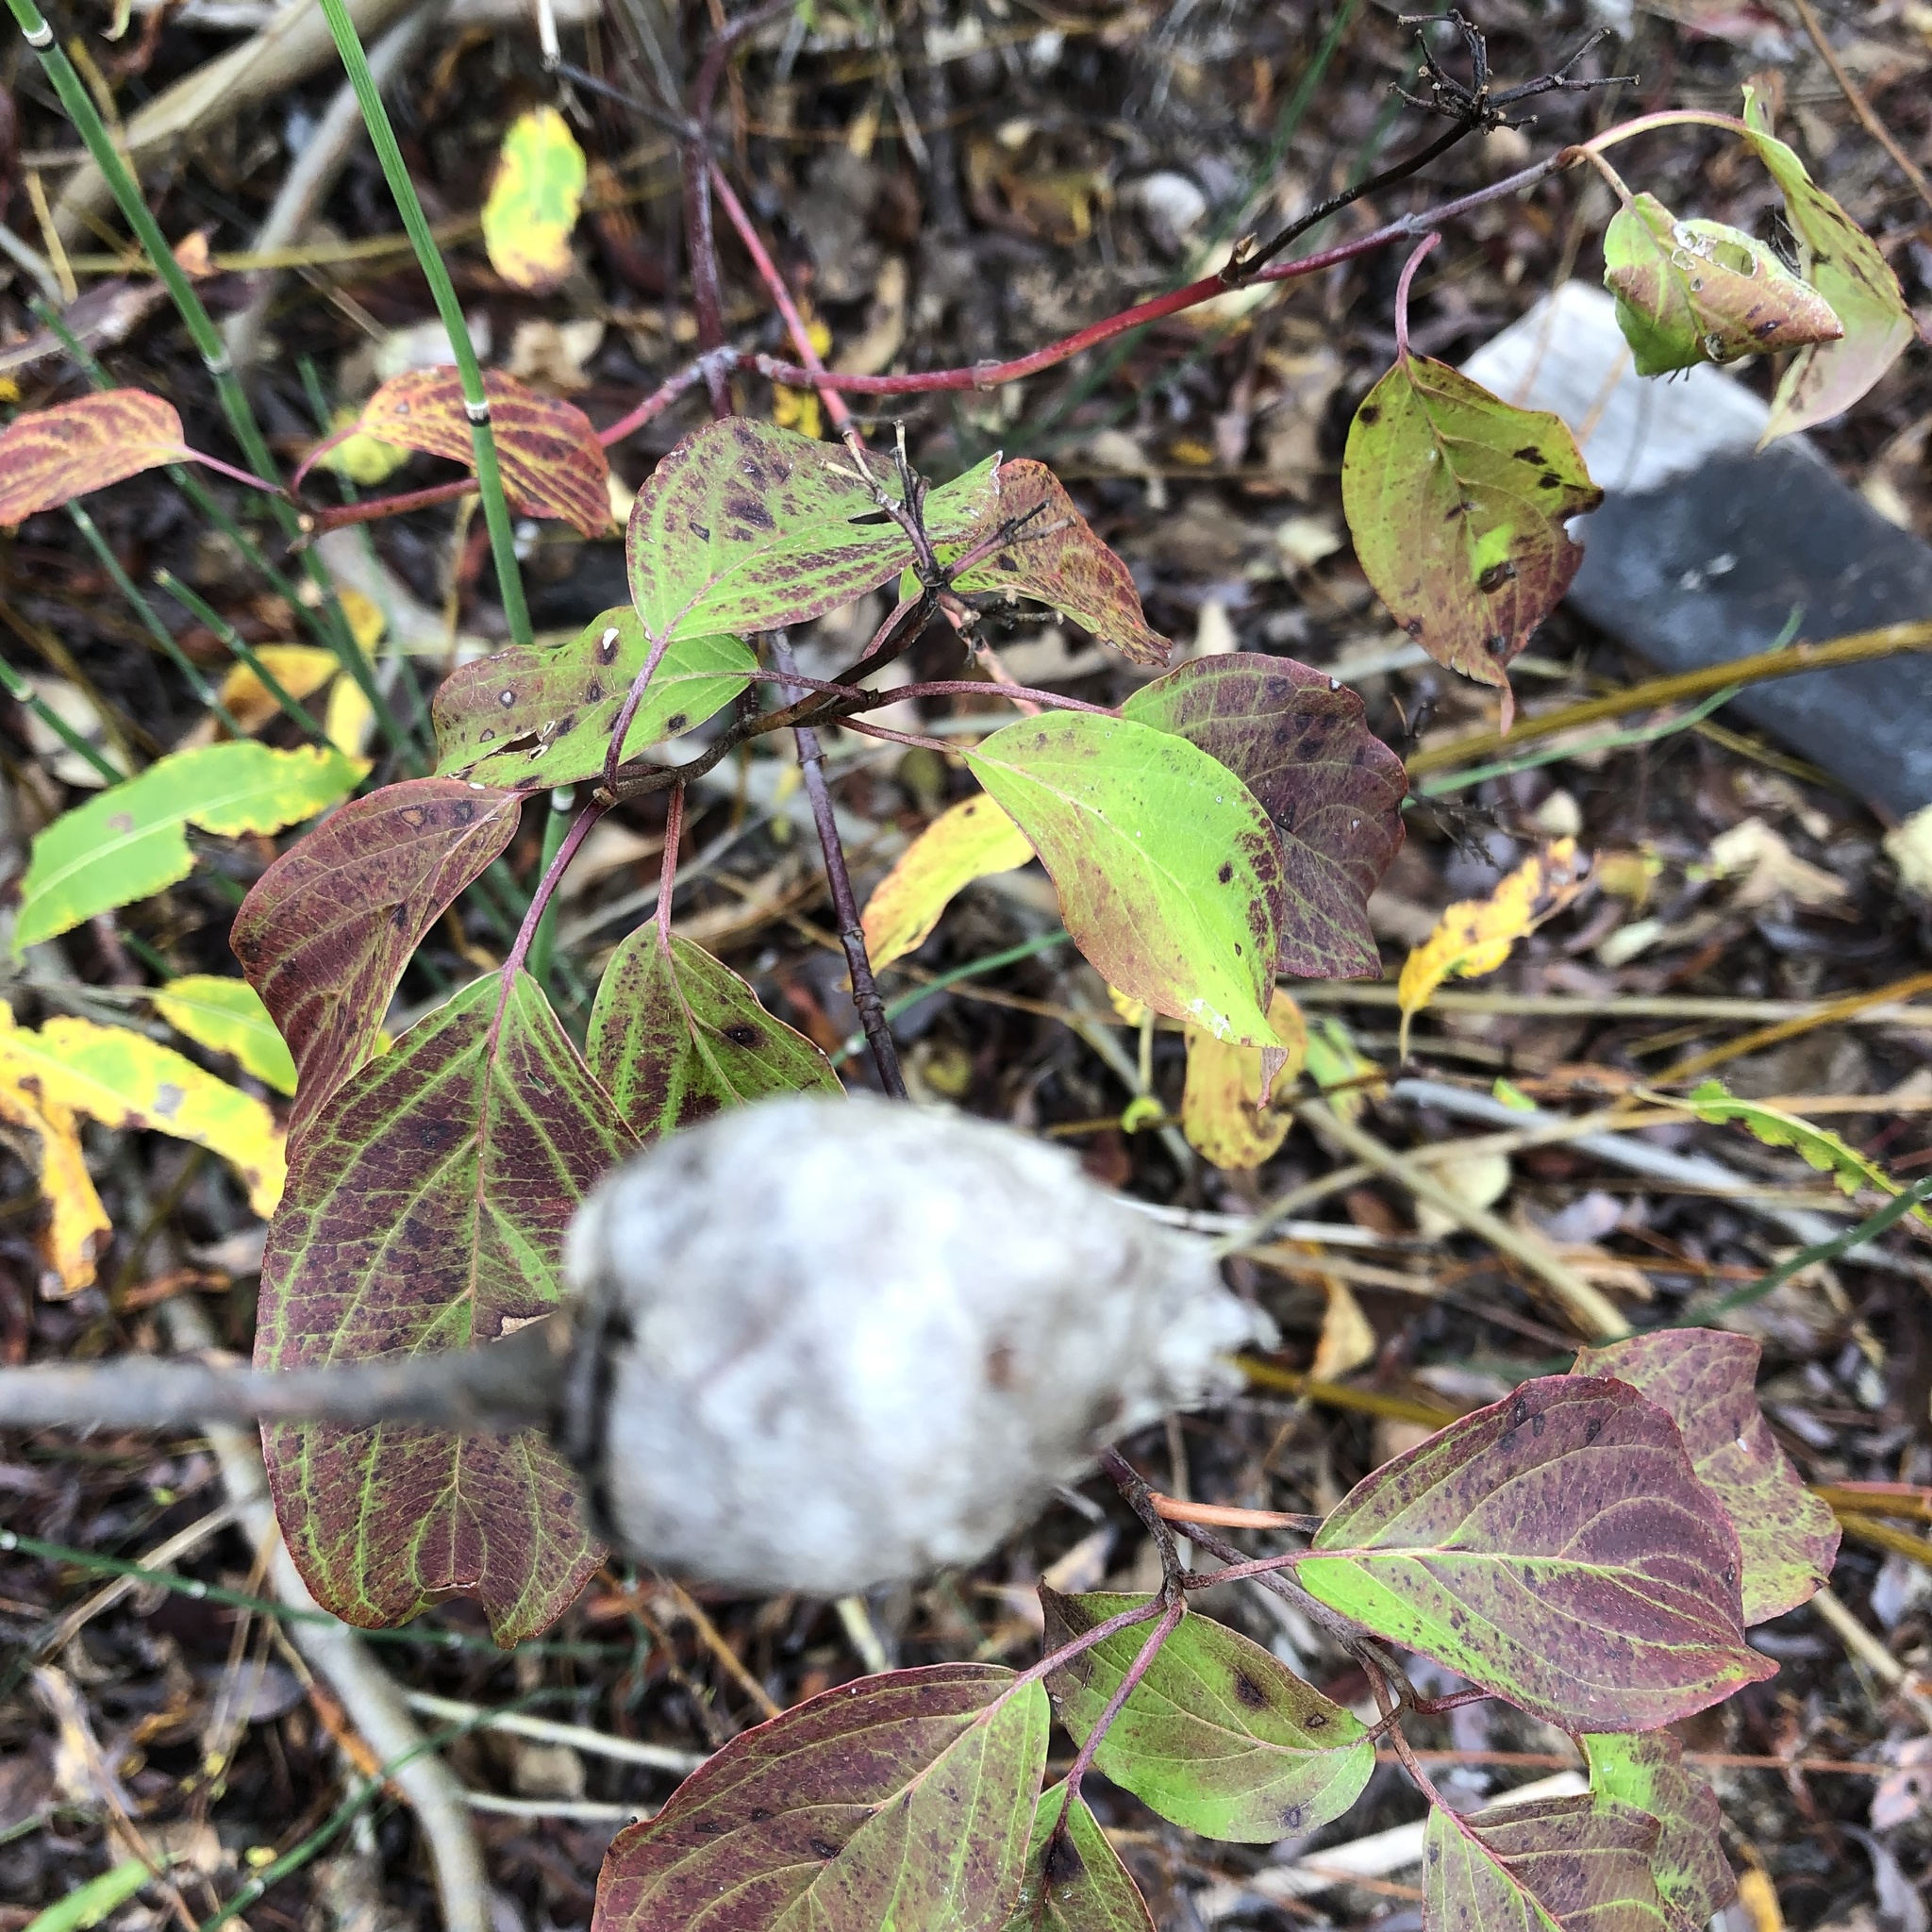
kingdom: Animalia
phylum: Arthropoda
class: Insecta
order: Diptera
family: Cecidomyiidae
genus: Rabdophaga
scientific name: Rabdophaga strobiloides
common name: Willow pinecone gall midge
